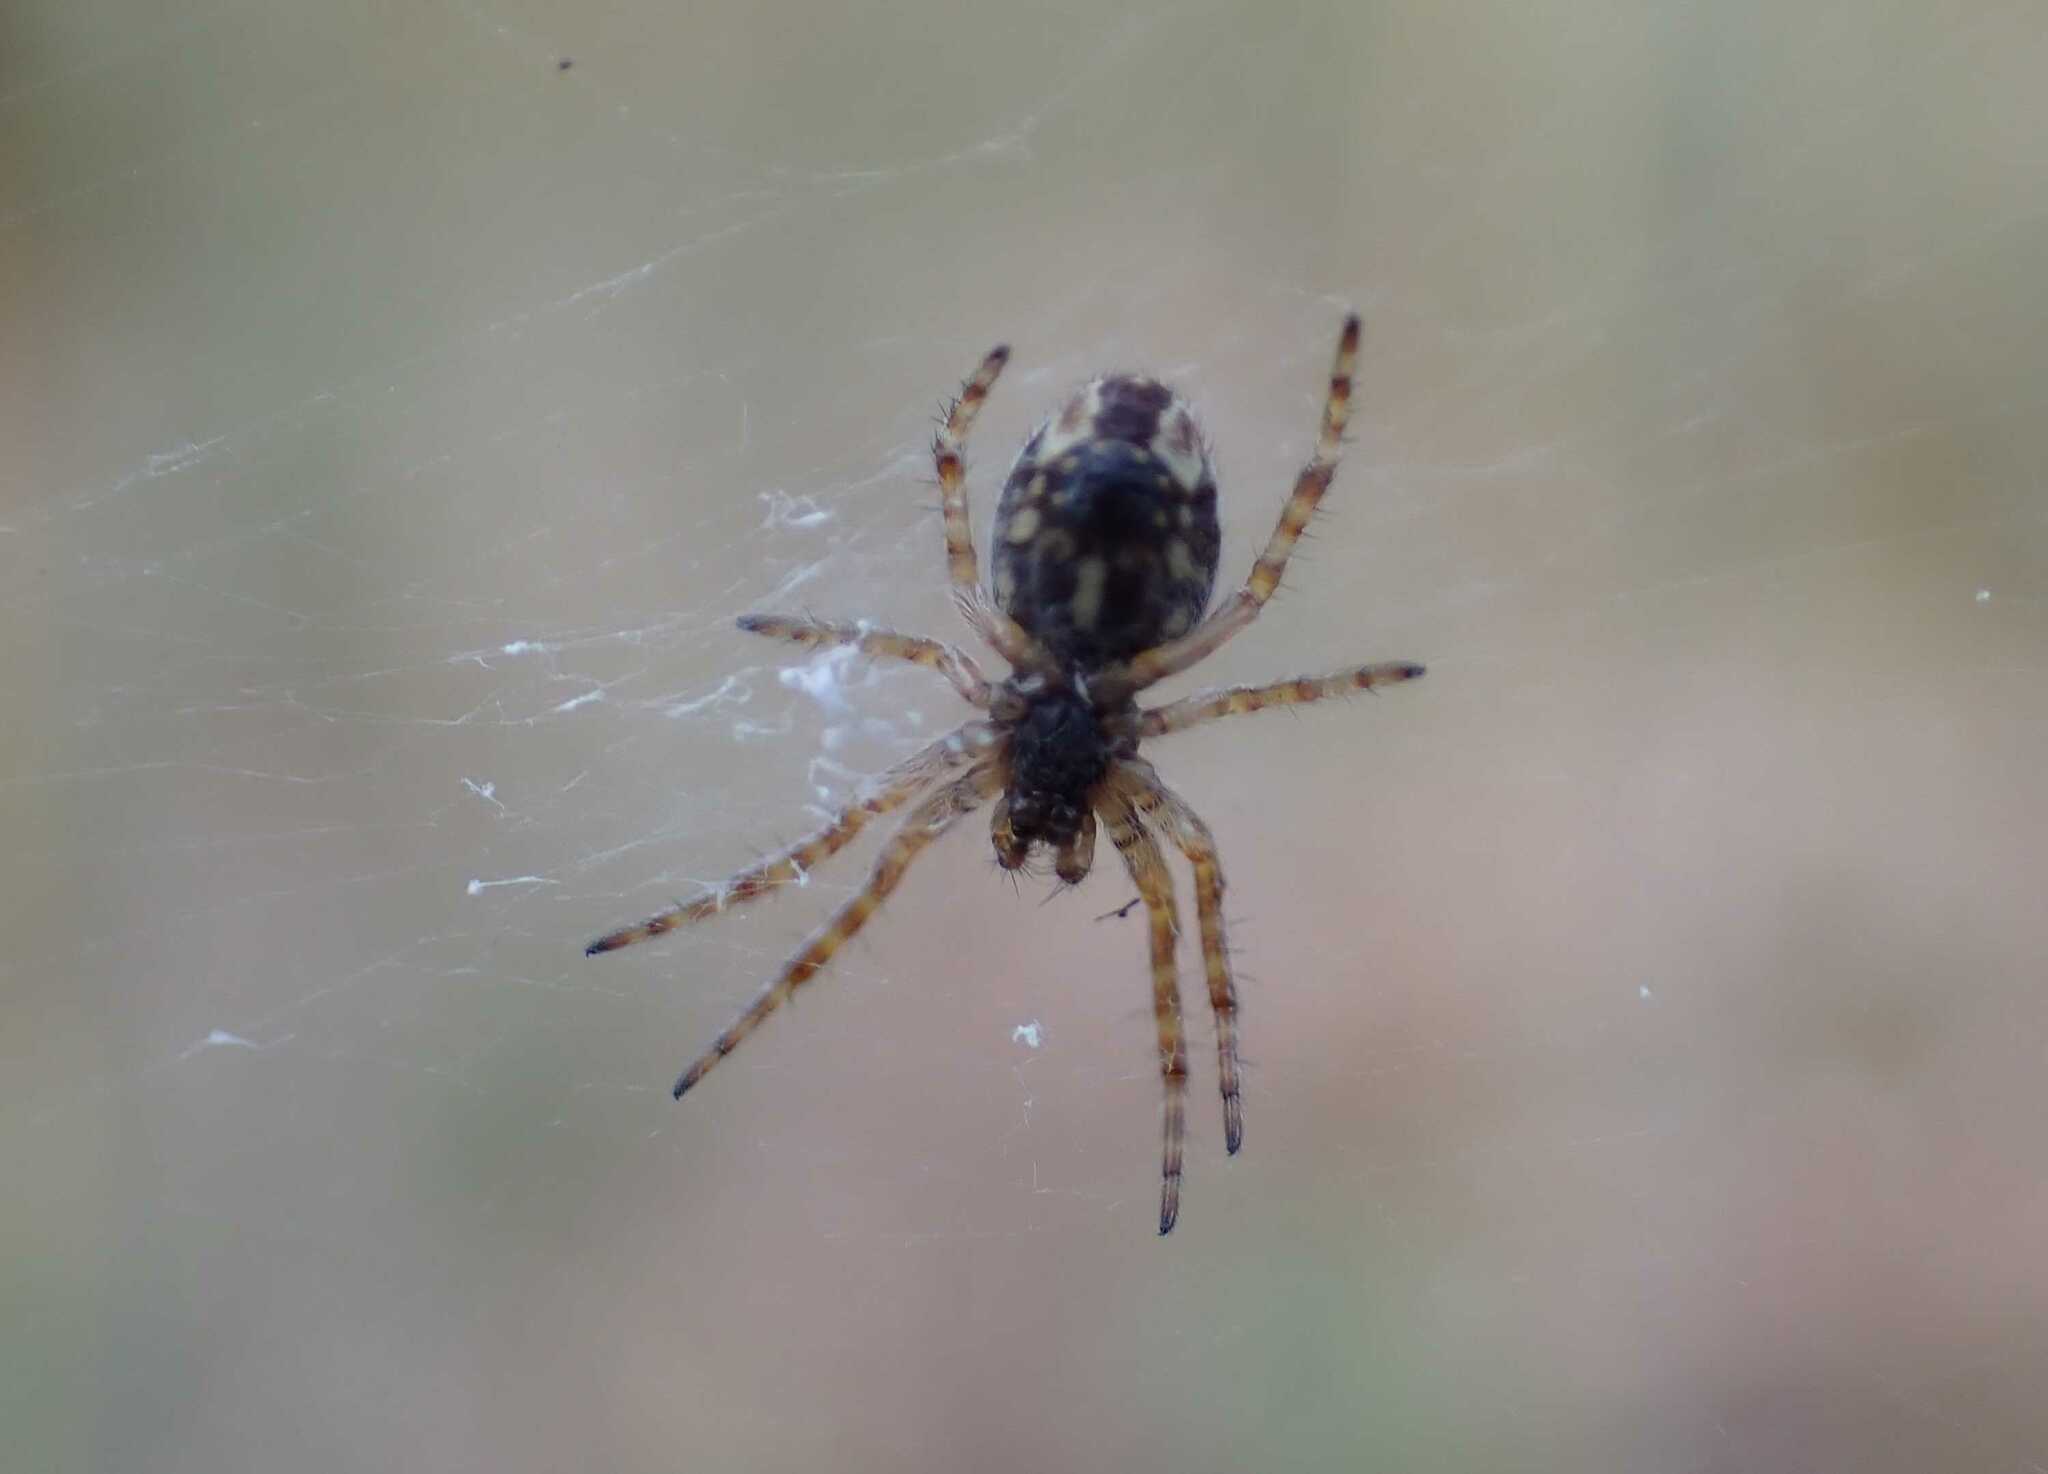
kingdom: Animalia
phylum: Arthropoda
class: Arachnida
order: Araneae
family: Araneidae
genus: Aculepeira
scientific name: Aculepeira ceropegia
